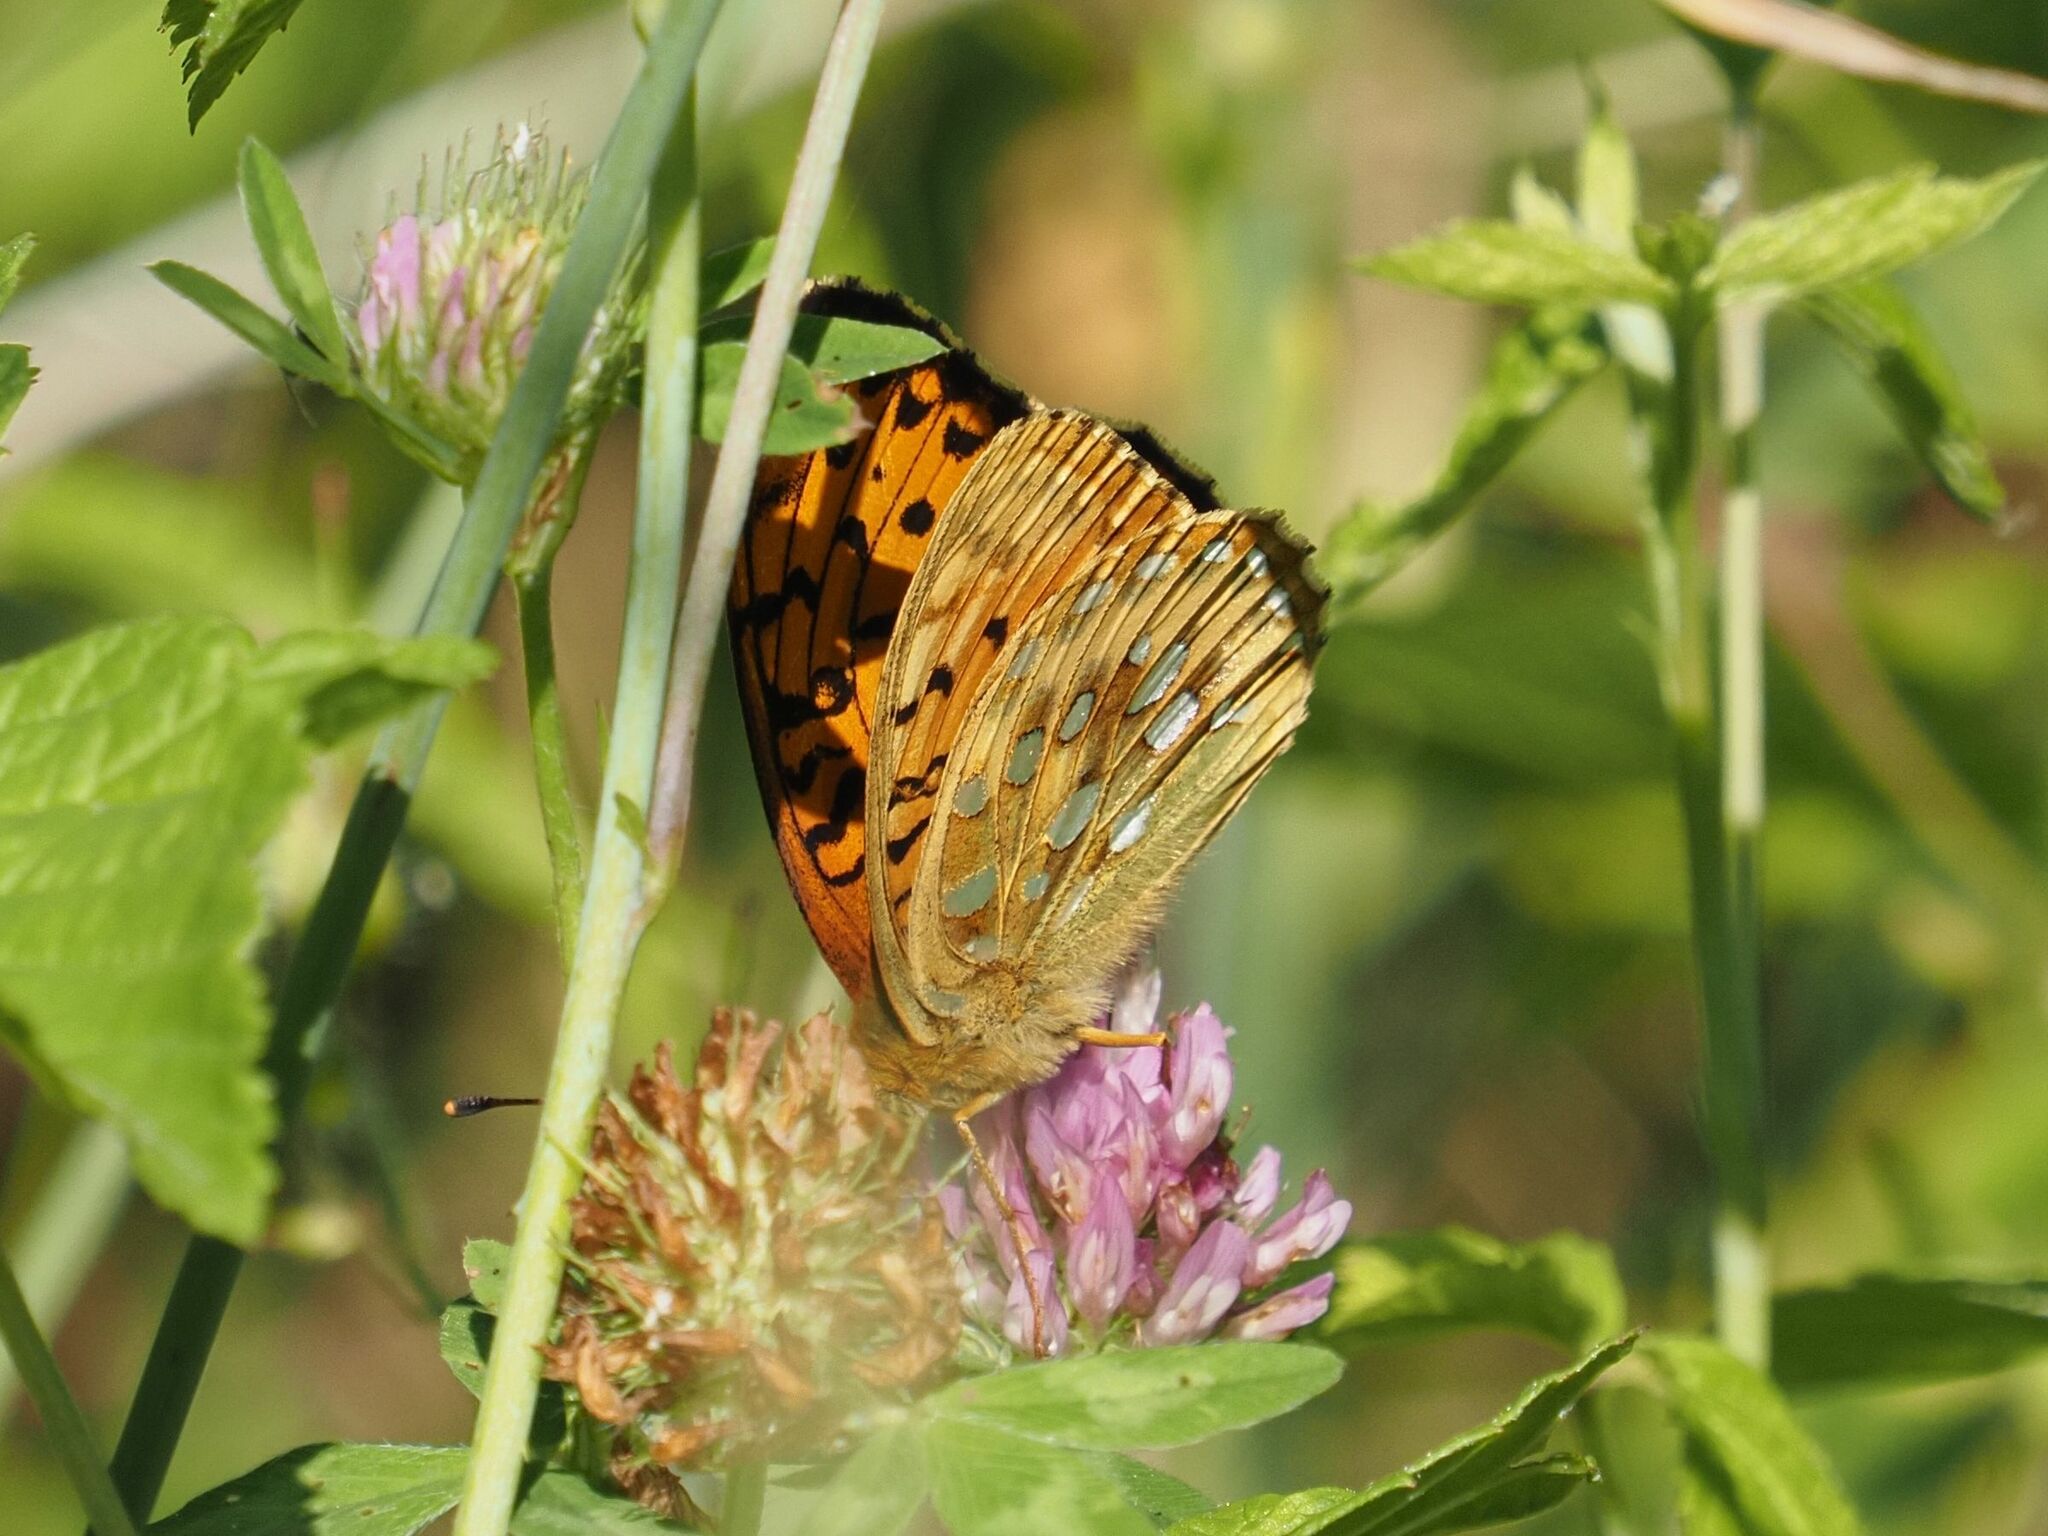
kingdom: Animalia
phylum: Arthropoda
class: Insecta
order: Lepidoptera
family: Nymphalidae
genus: Speyeria
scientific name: Speyeria aglaja
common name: Dark green fritillary
